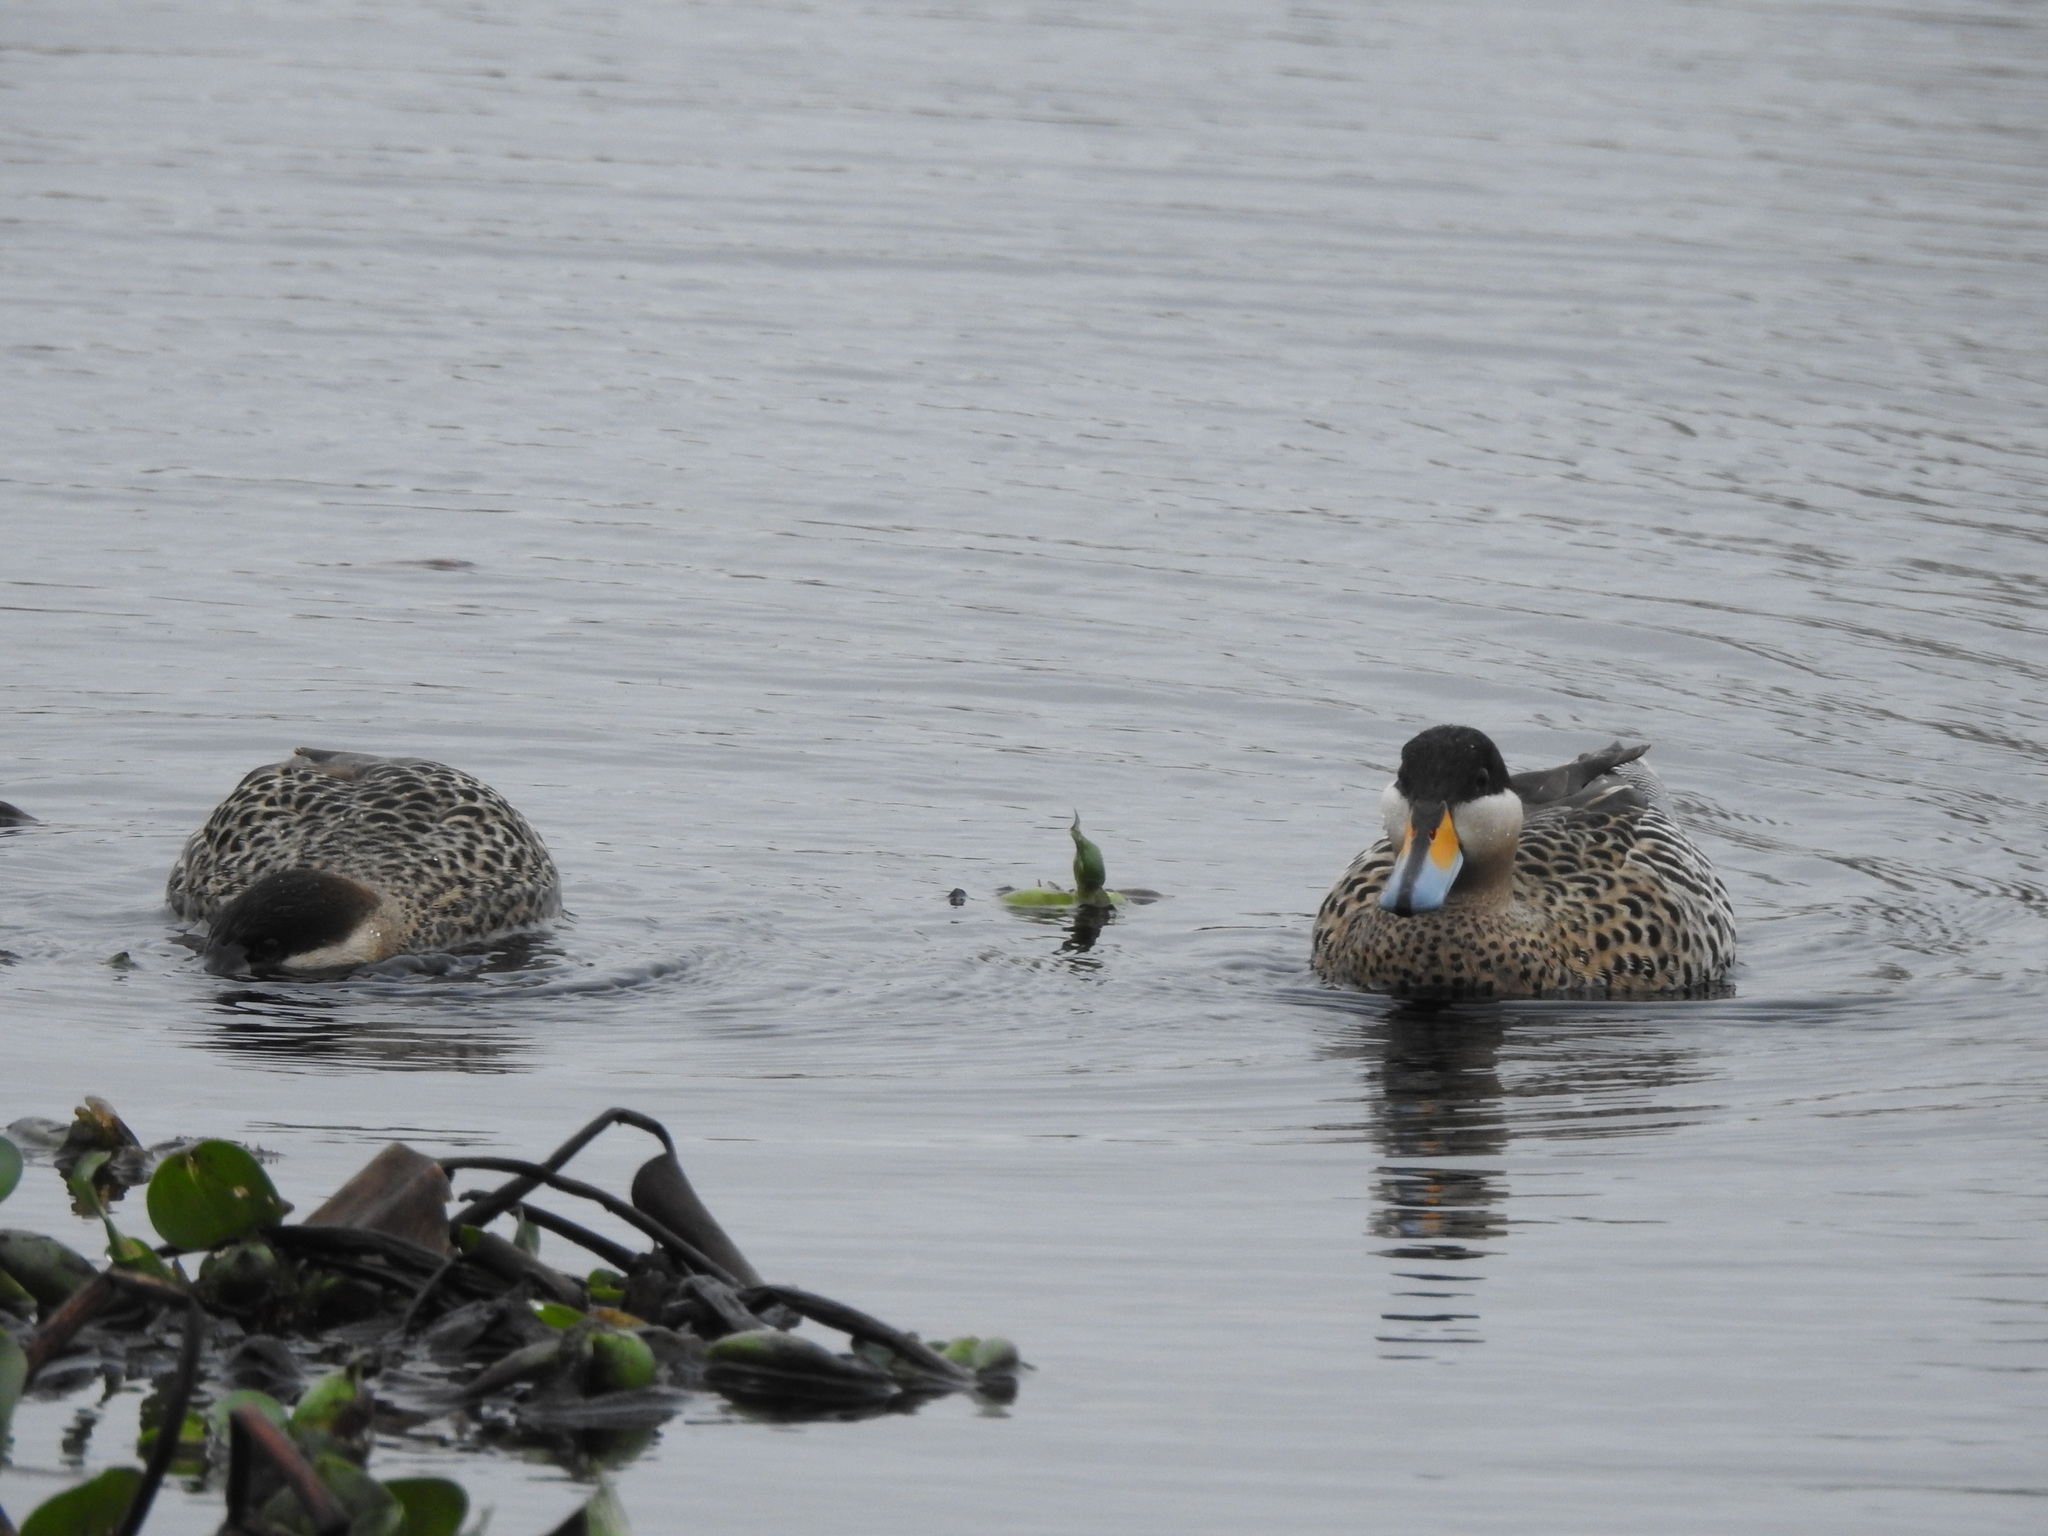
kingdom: Animalia
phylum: Chordata
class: Aves
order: Anseriformes
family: Anatidae
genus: Spatula
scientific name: Spatula versicolor
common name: Silver teal
